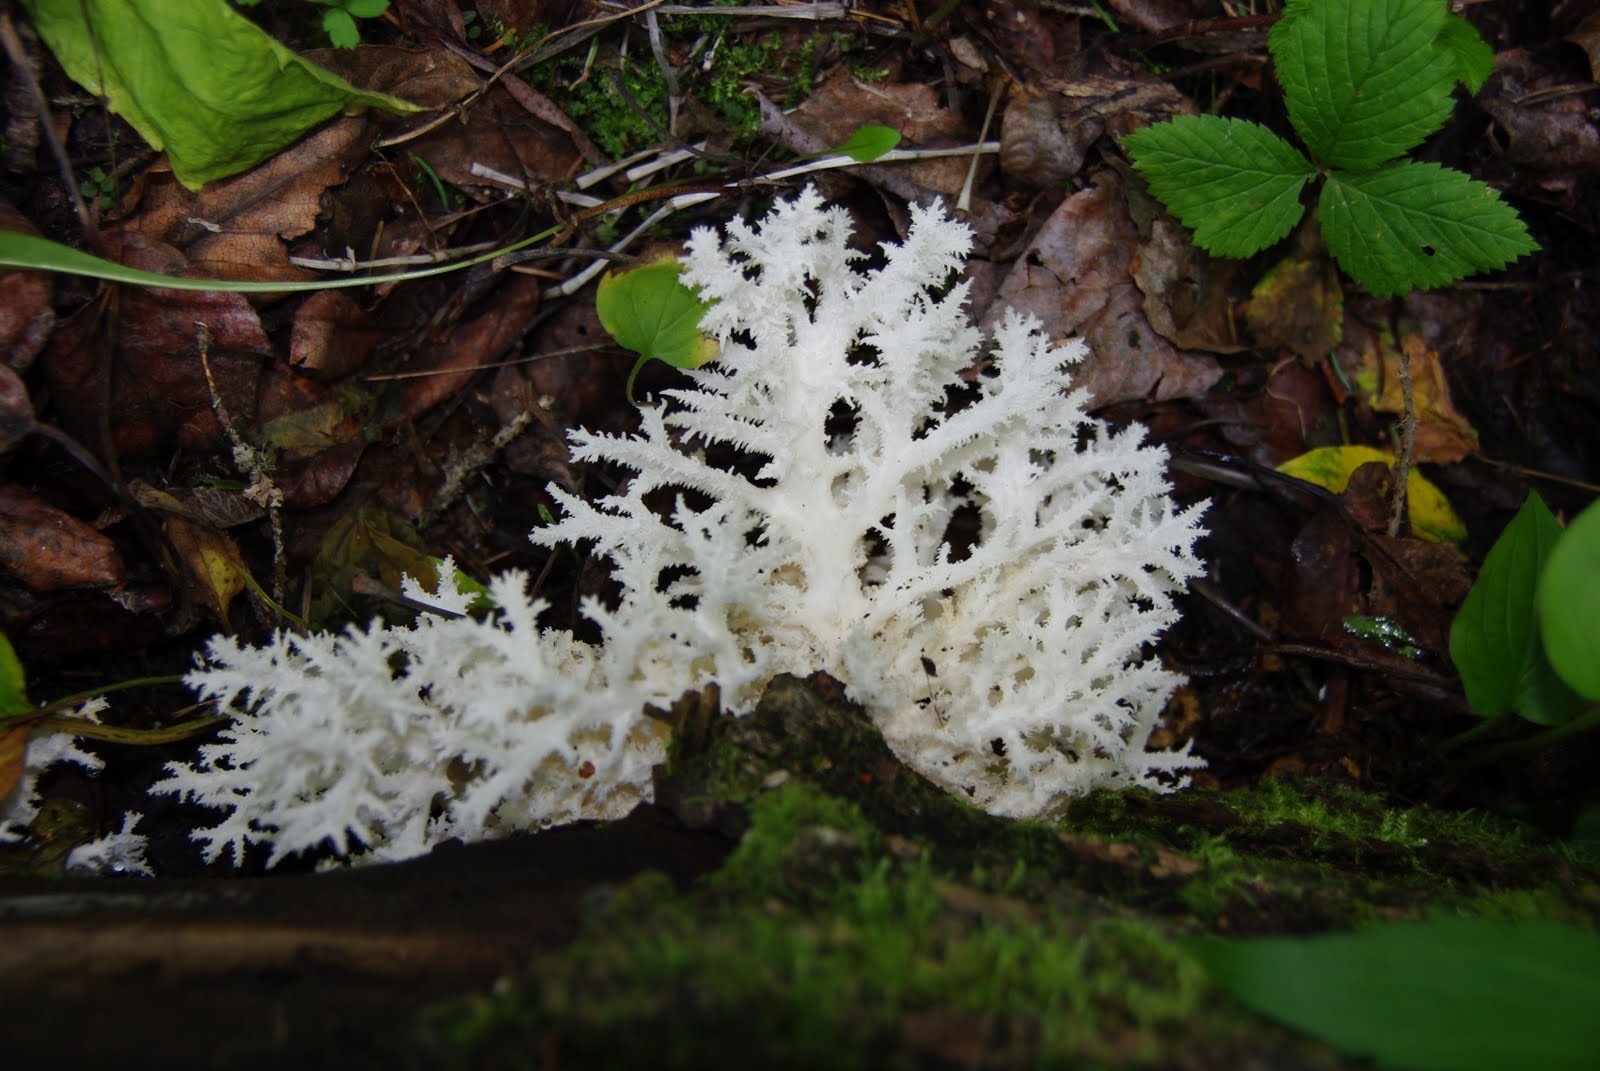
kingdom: Fungi
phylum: Basidiomycota
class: Agaricomycetes
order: Russulales
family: Hericiaceae
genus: Hericium
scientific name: Hericium coralloides
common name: Coral tooth
